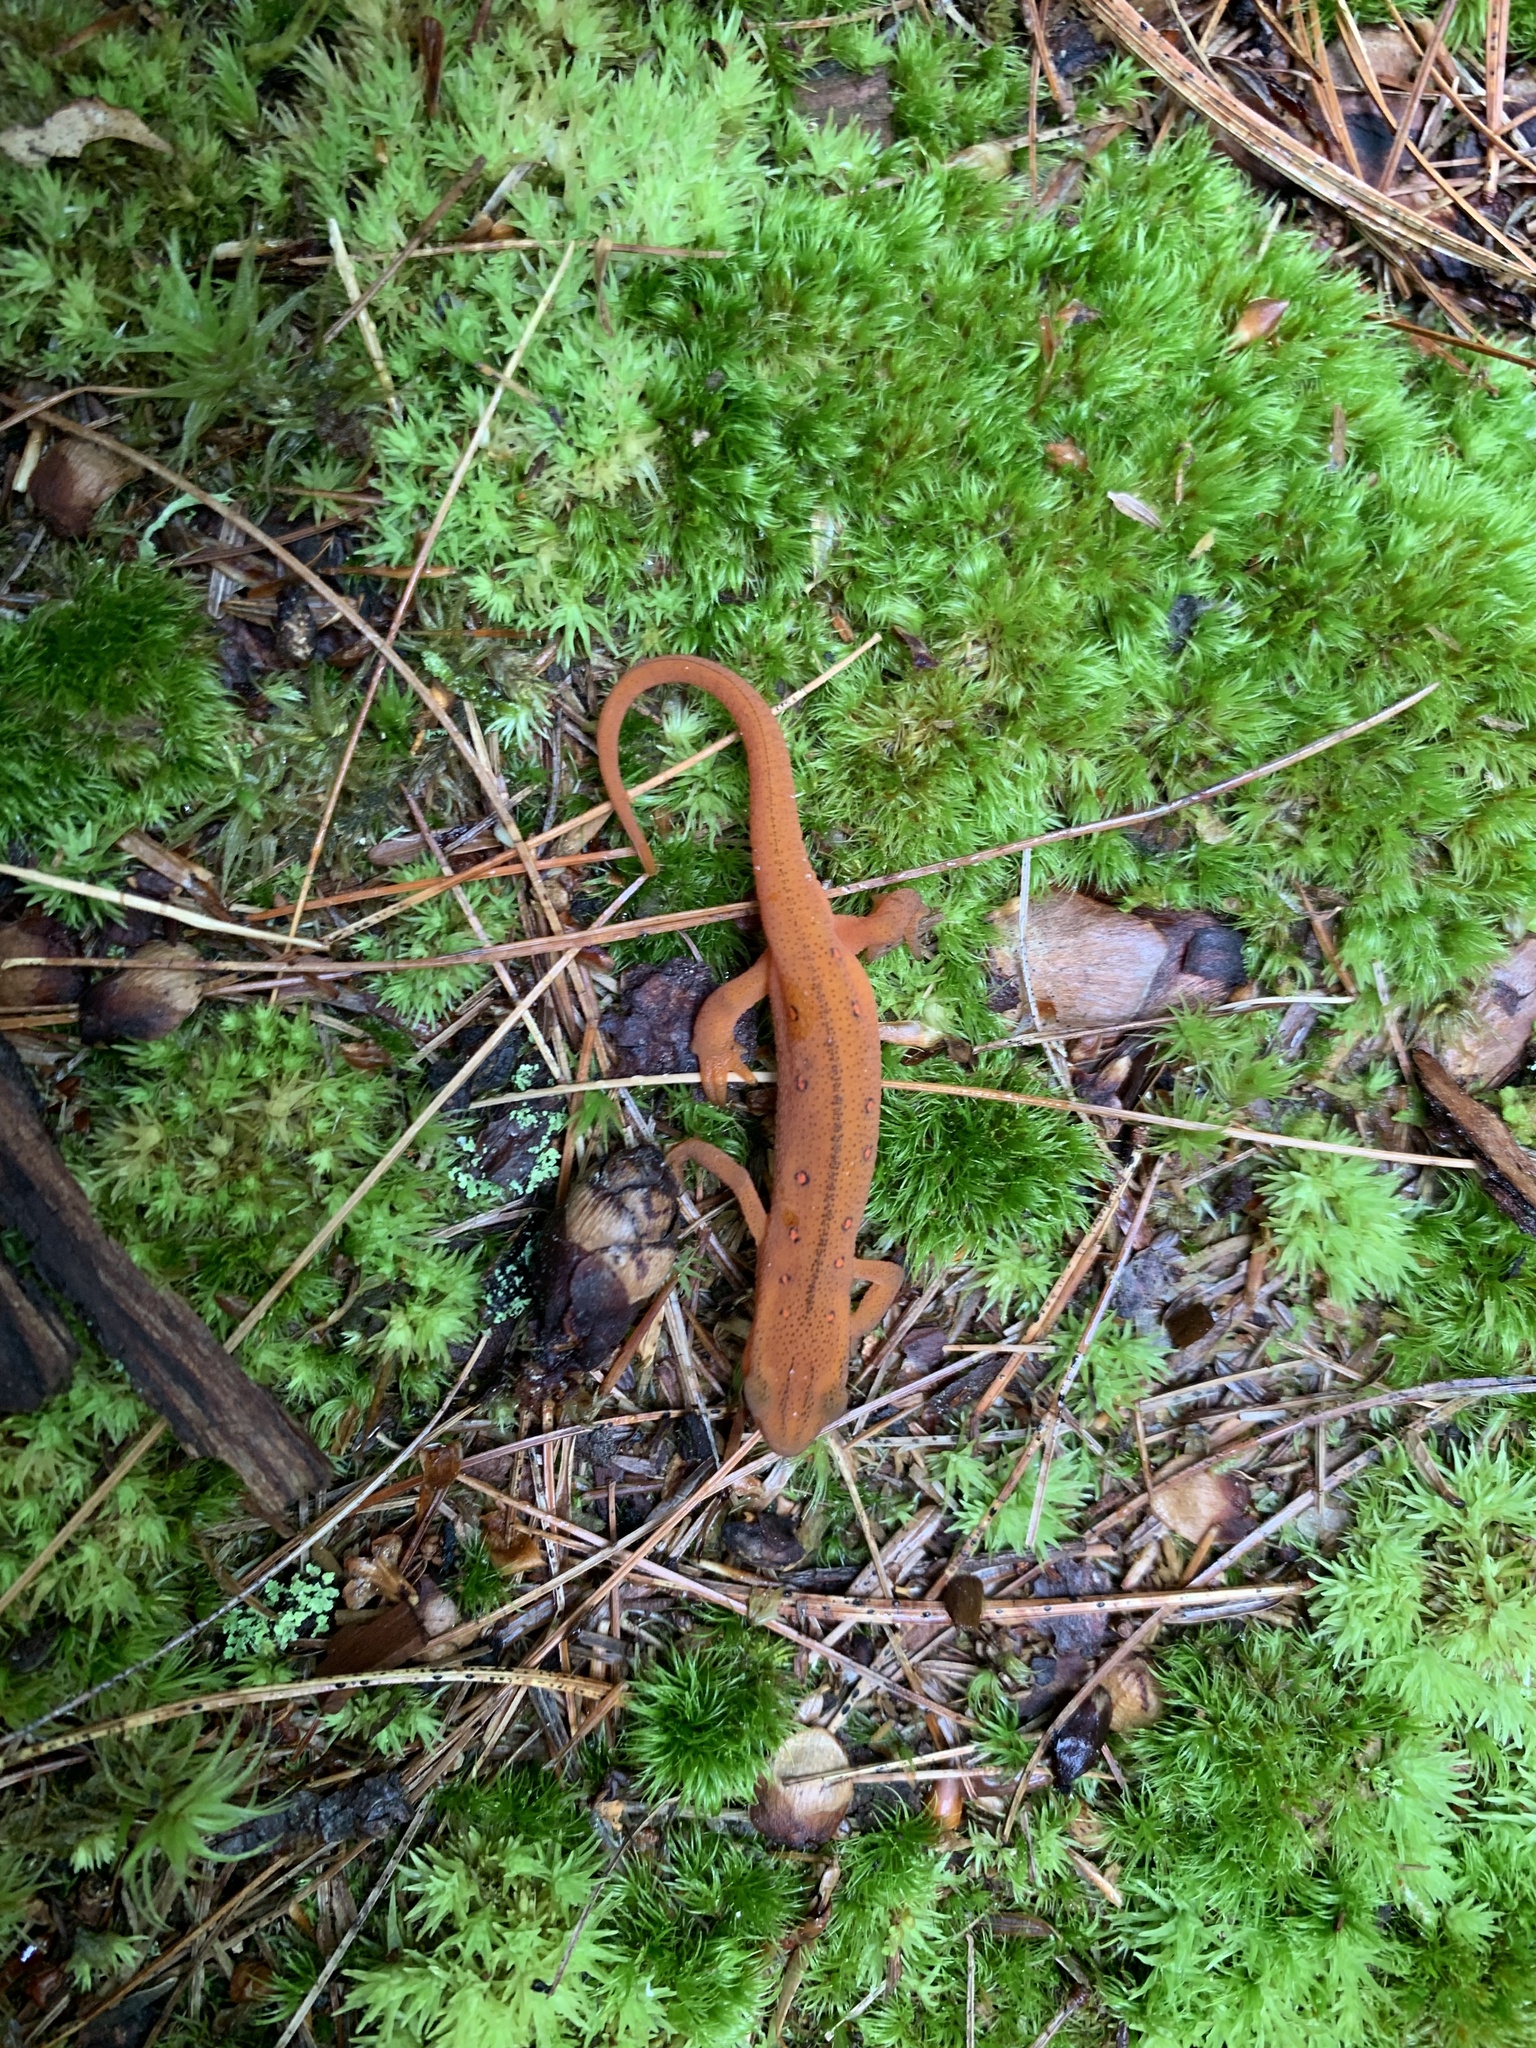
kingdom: Animalia
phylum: Chordata
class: Amphibia
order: Caudata
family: Salamandridae
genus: Notophthalmus
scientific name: Notophthalmus viridescens
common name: Eastern newt
